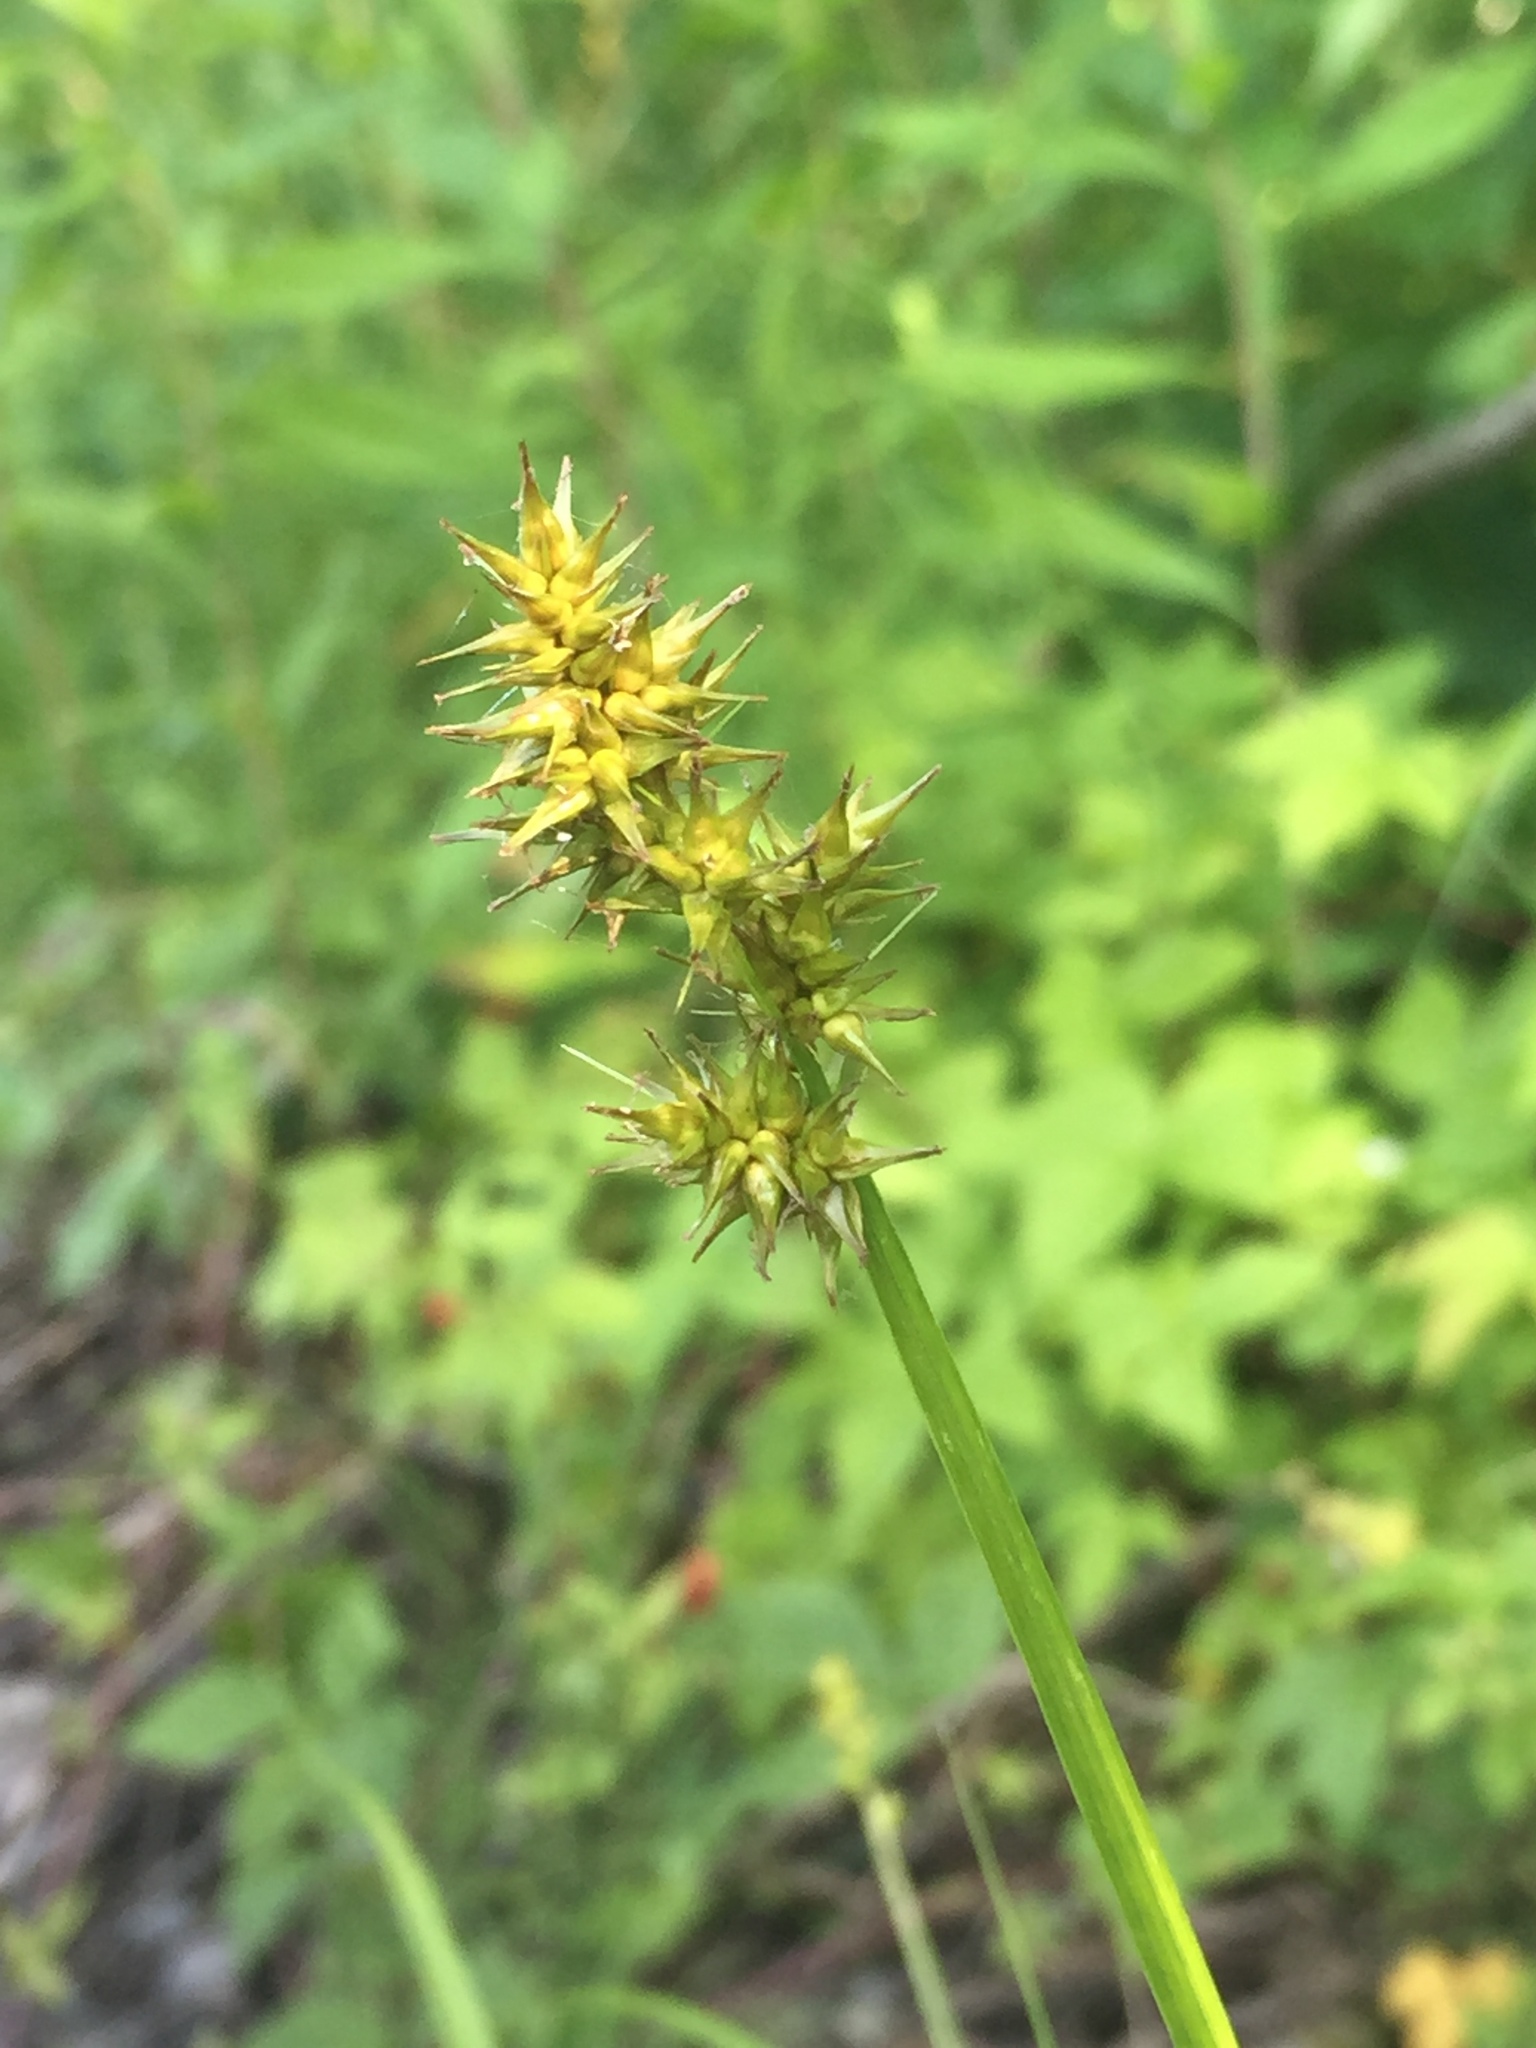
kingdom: Plantae
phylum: Tracheophyta
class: Liliopsida
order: Poales
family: Cyperaceae
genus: Carex
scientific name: Carex stipata
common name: Awl-fruited sedge
